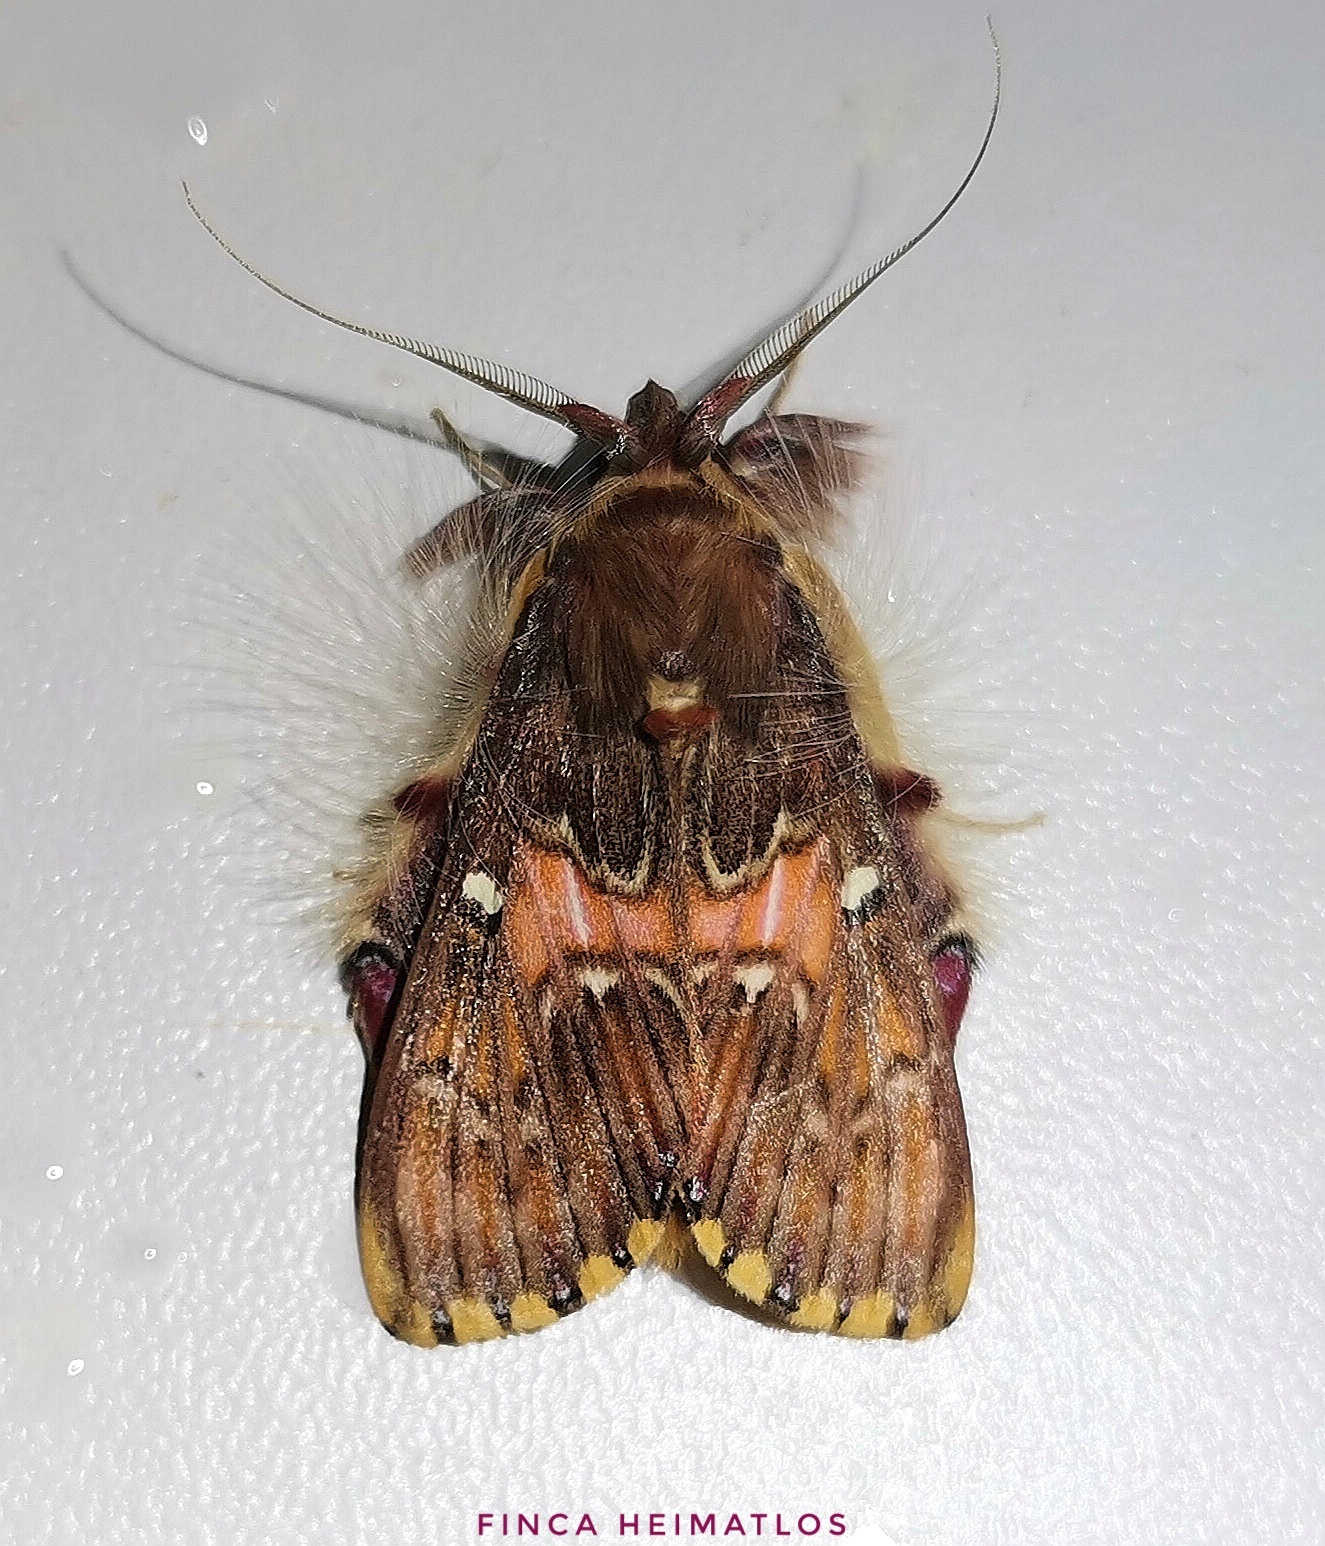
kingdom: Animalia
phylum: Arthropoda
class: Insecta
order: Lepidoptera
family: Erebidae
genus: Sosxetra
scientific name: Sosxetra grata
